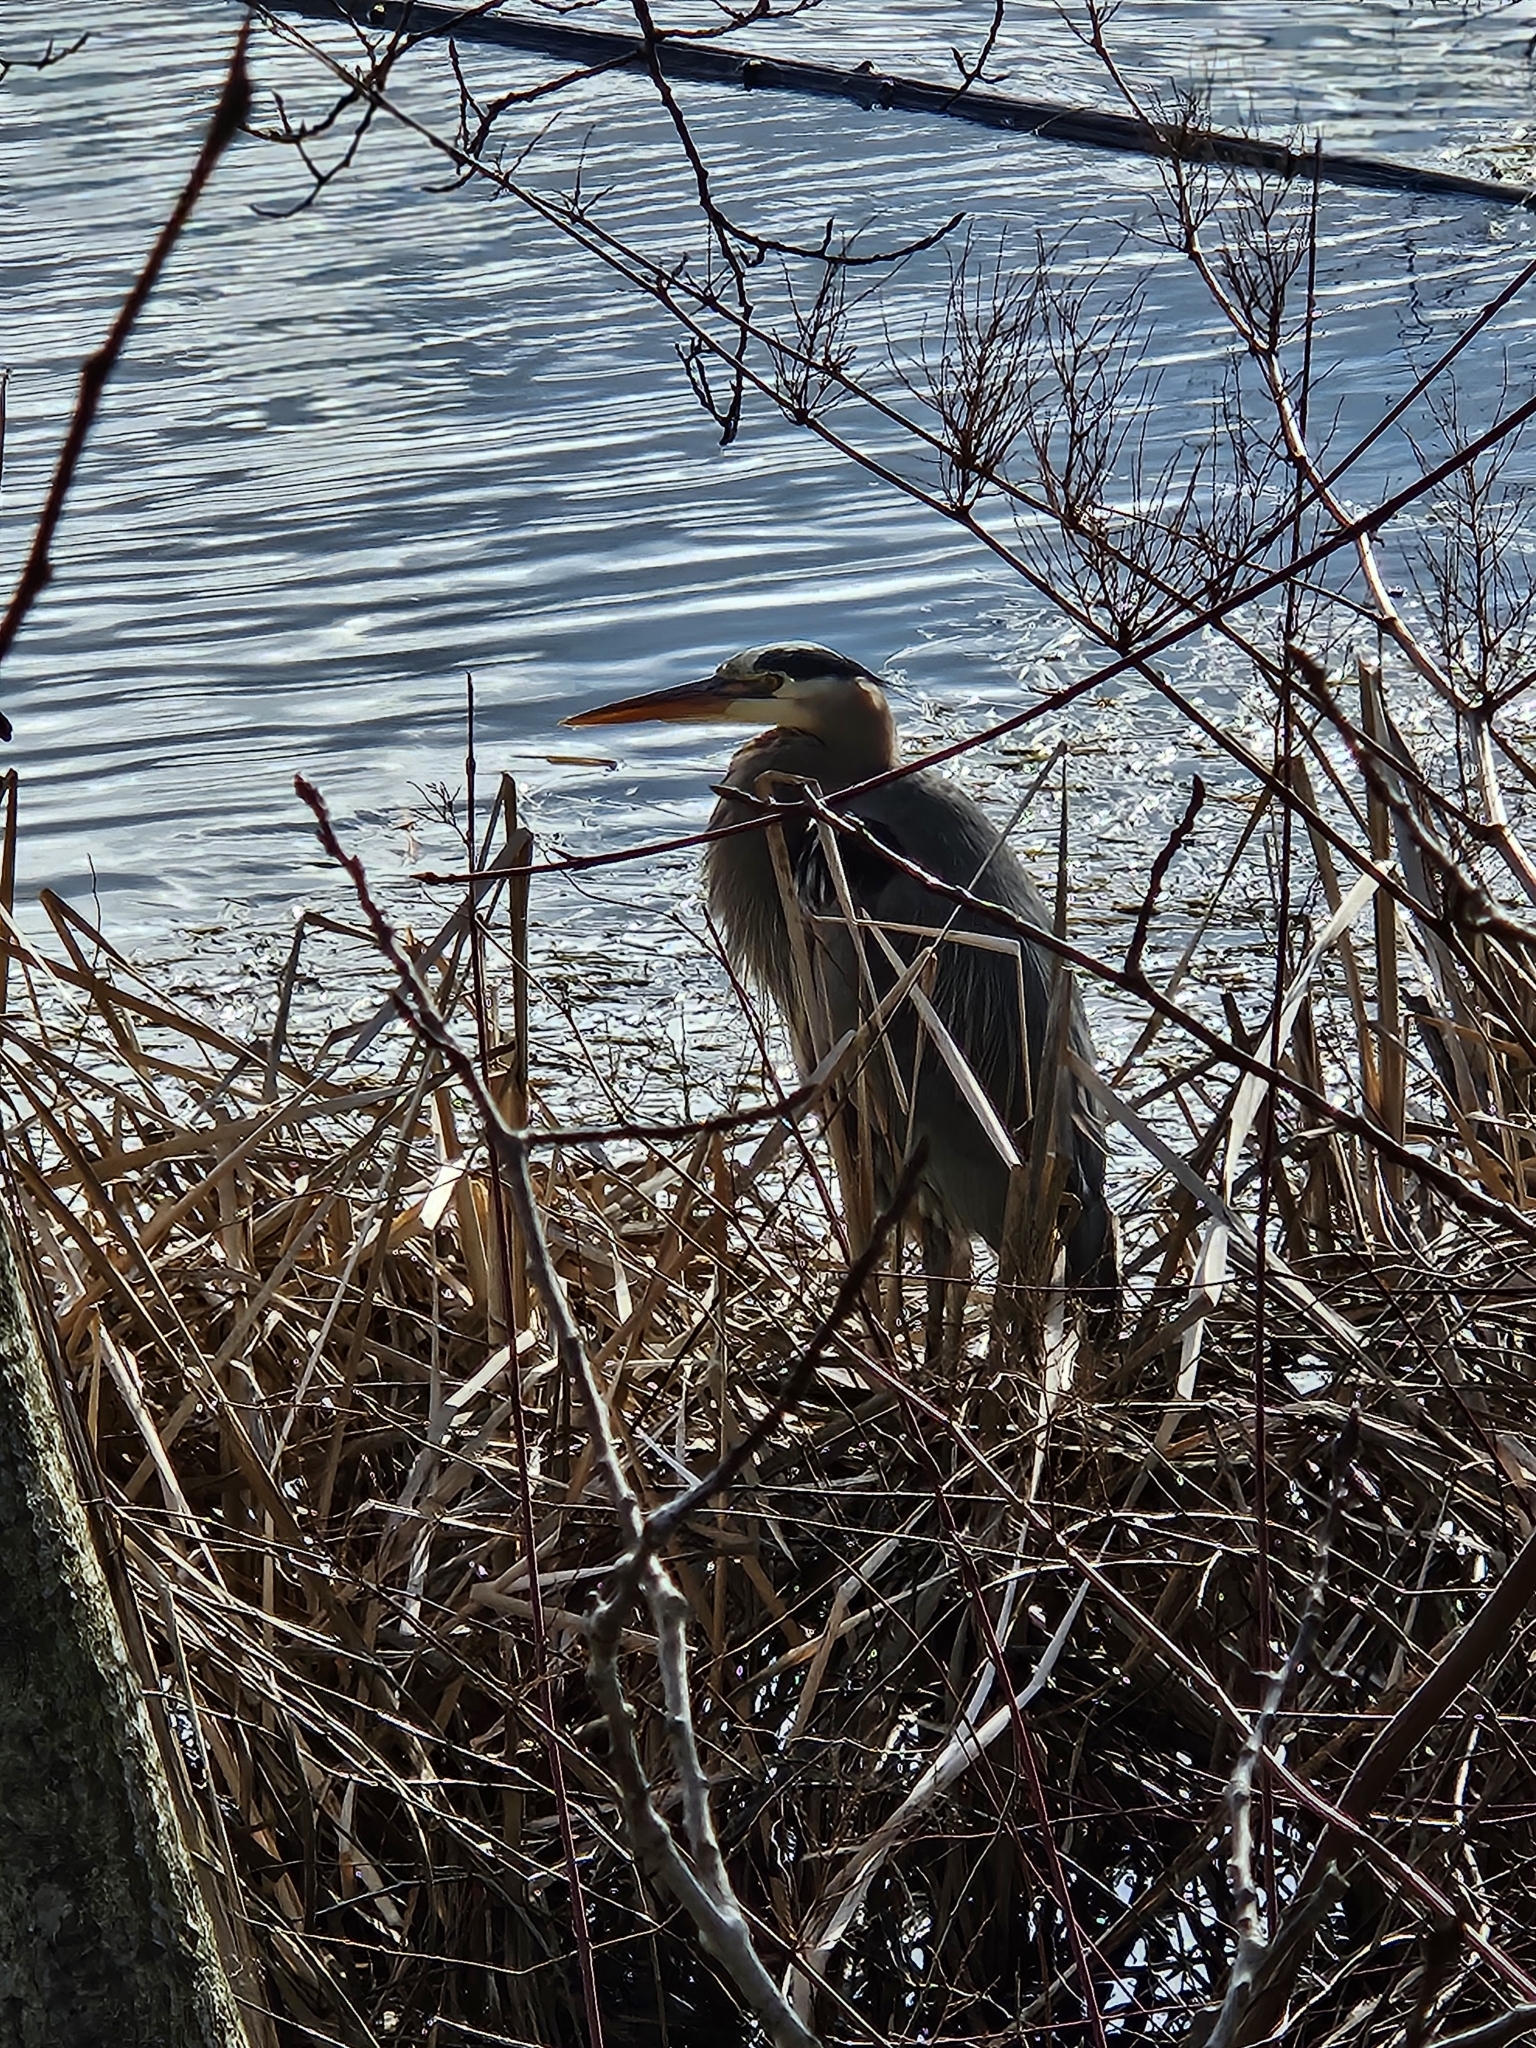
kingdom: Animalia
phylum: Chordata
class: Aves
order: Pelecaniformes
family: Ardeidae
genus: Ardea
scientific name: Ardea herodias
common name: Great blue heron
